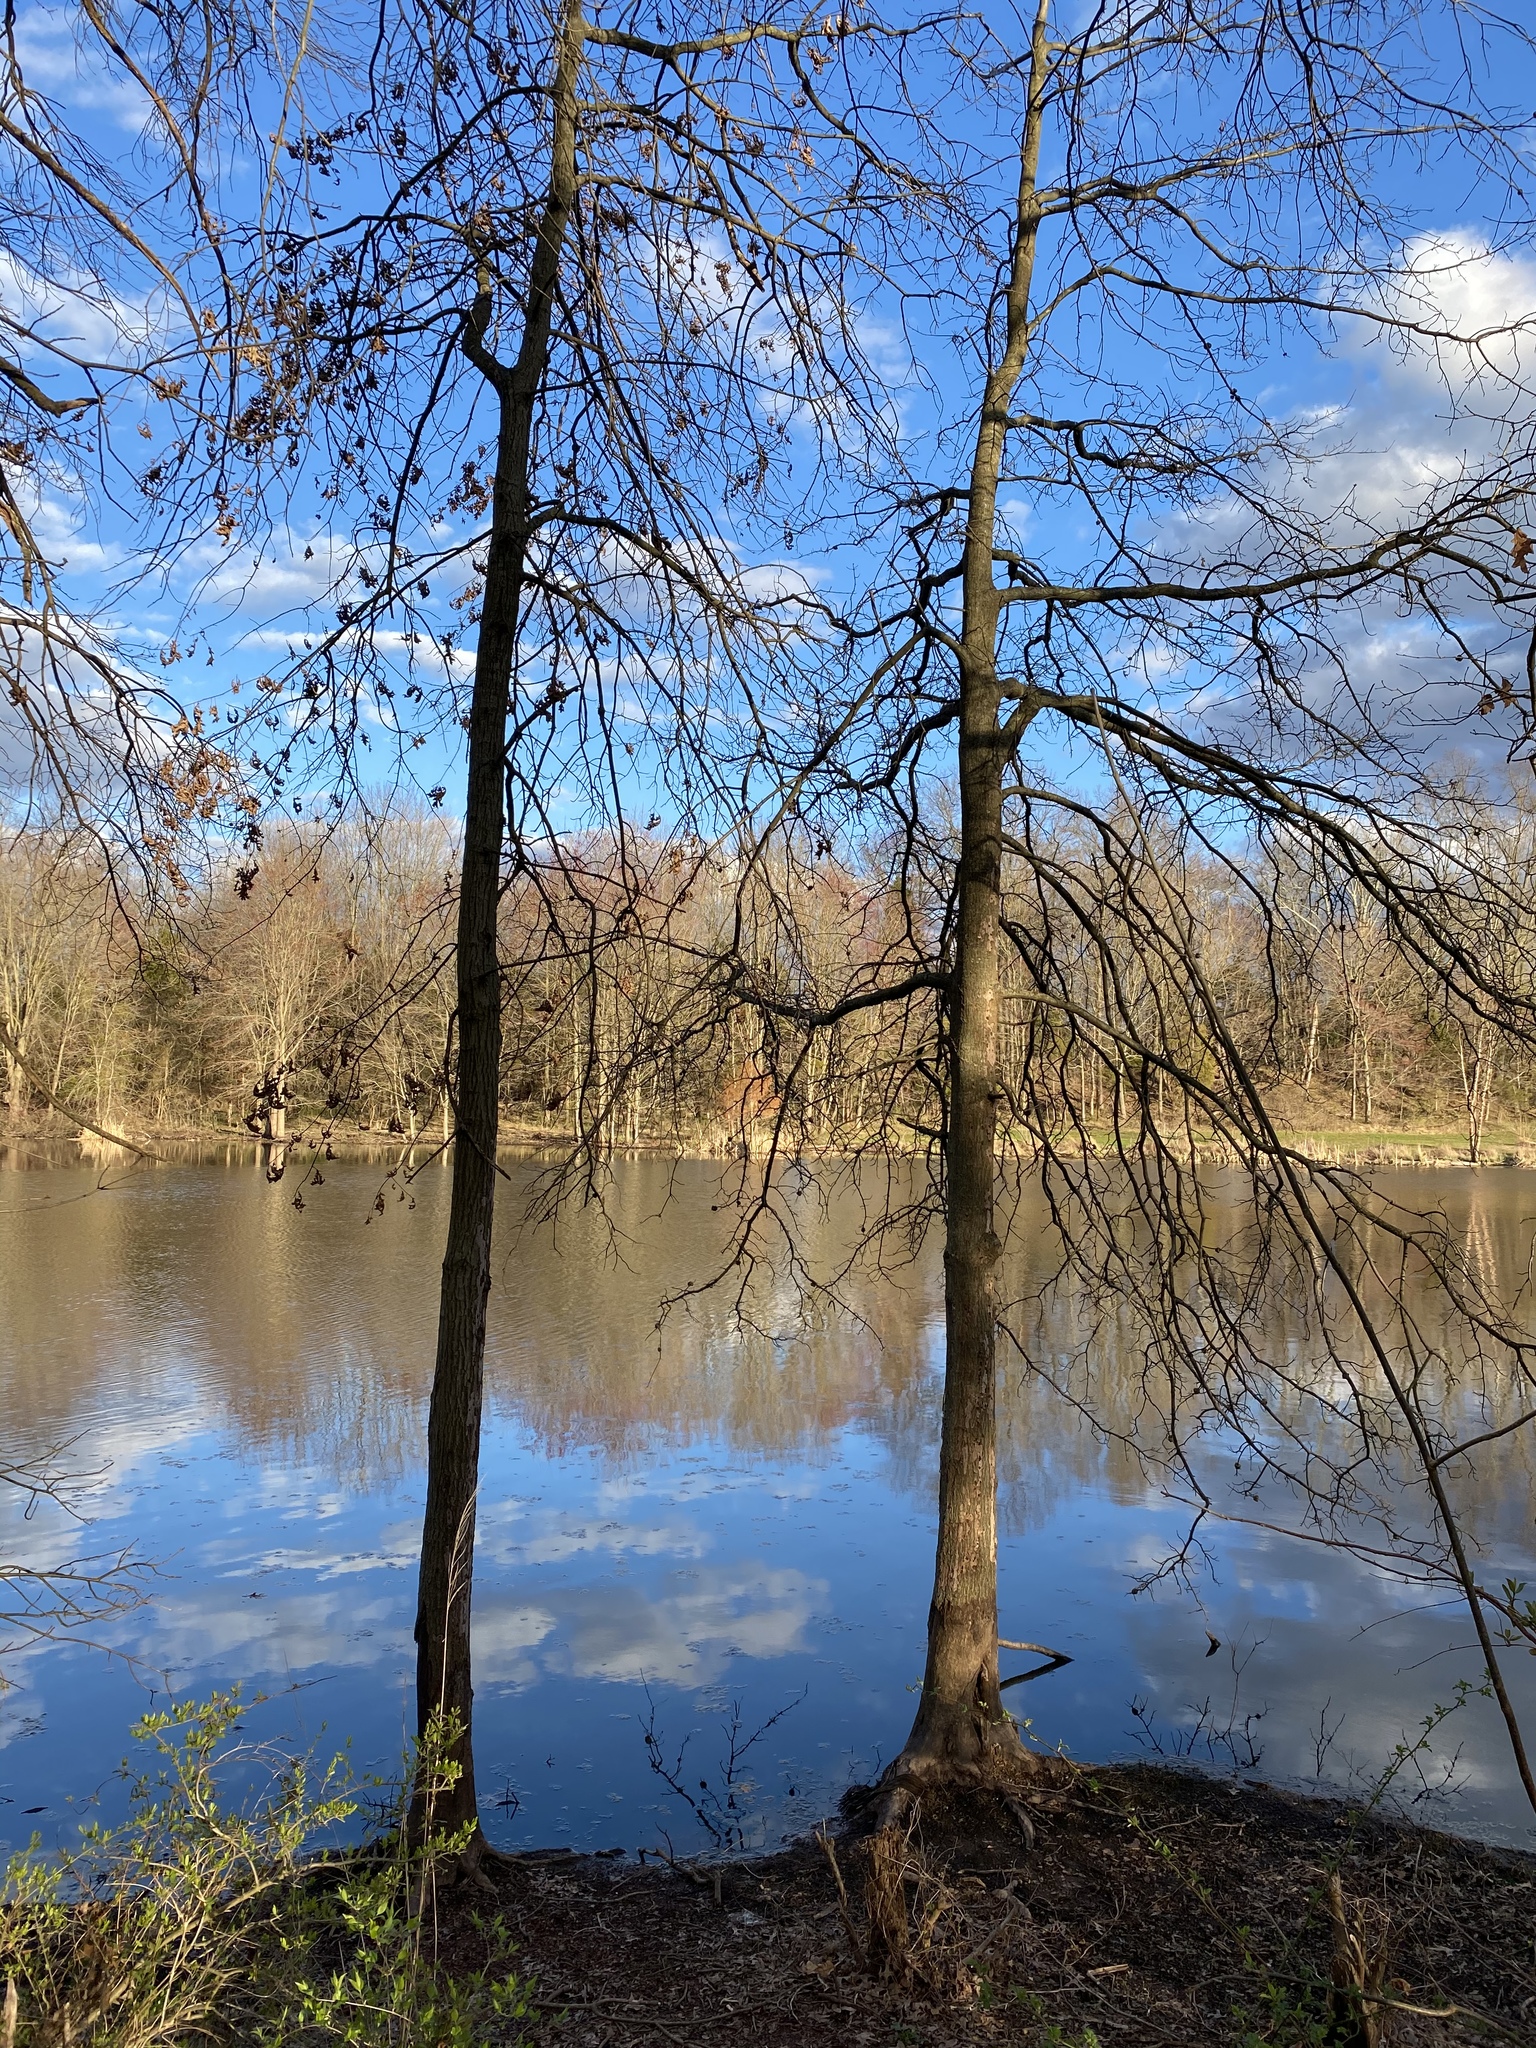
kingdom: Plantae
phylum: Tracheophyta
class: Magnoliopsida
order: Fagales
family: Fagaceae
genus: Quercus
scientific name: Quercus palustris
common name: Pin oak
